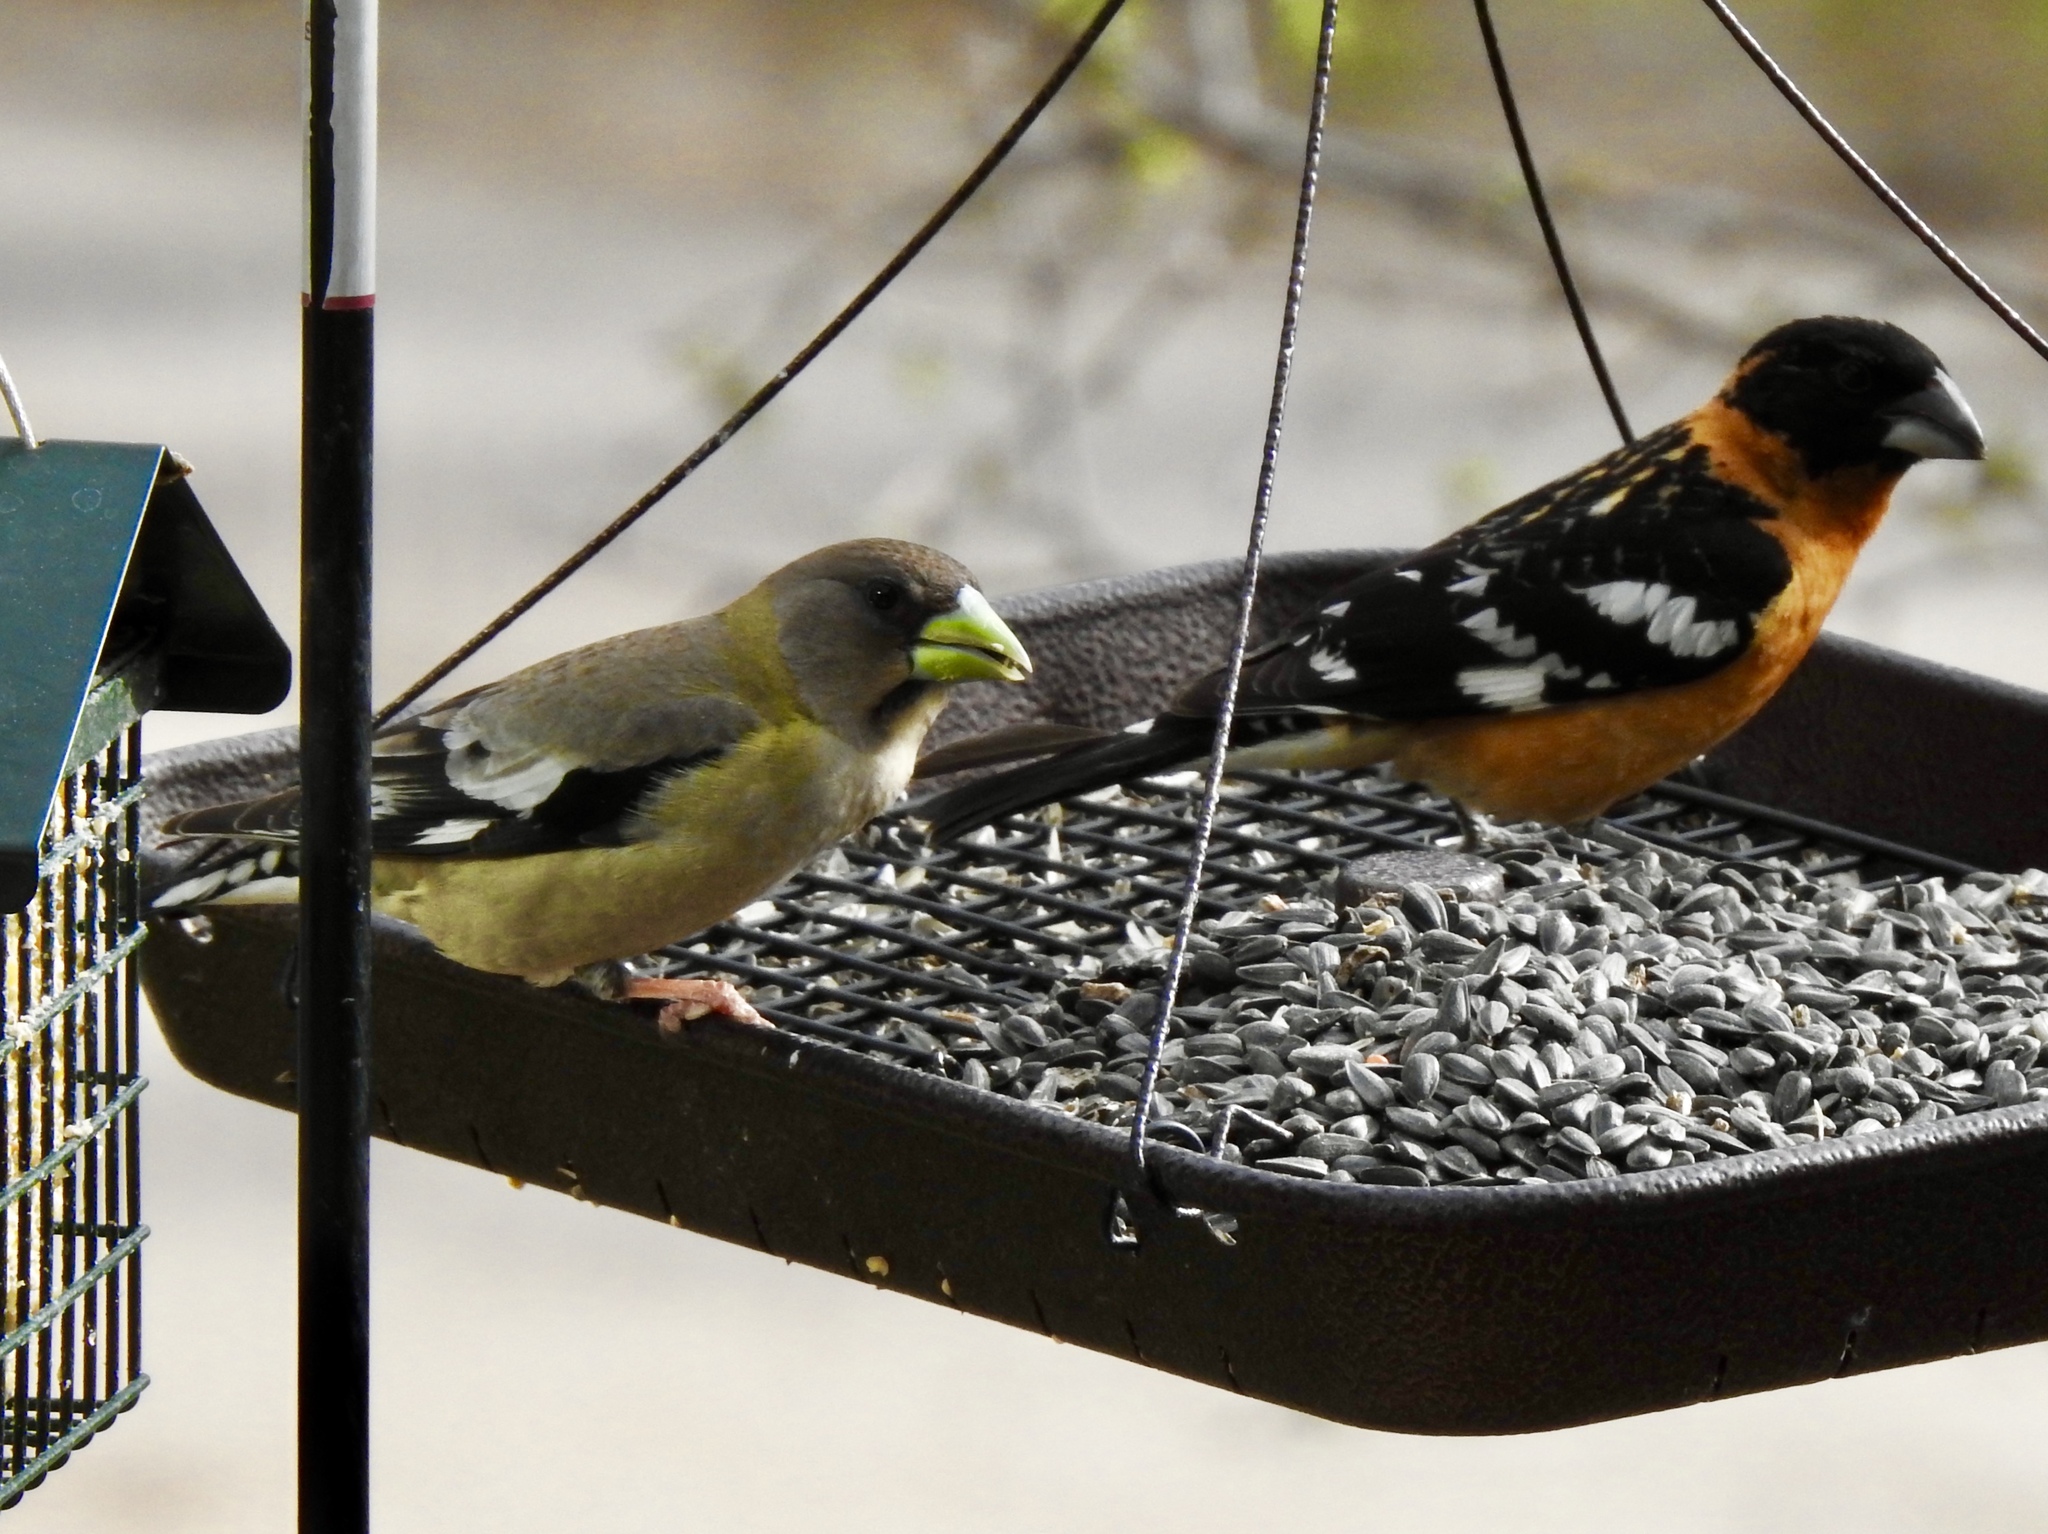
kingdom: Animalia
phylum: Chordata
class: Aves
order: Passeriformes
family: Cardinalidae
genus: Pheucticus
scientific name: Pheucticus melanocephalus
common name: Black-headed grosbeak
